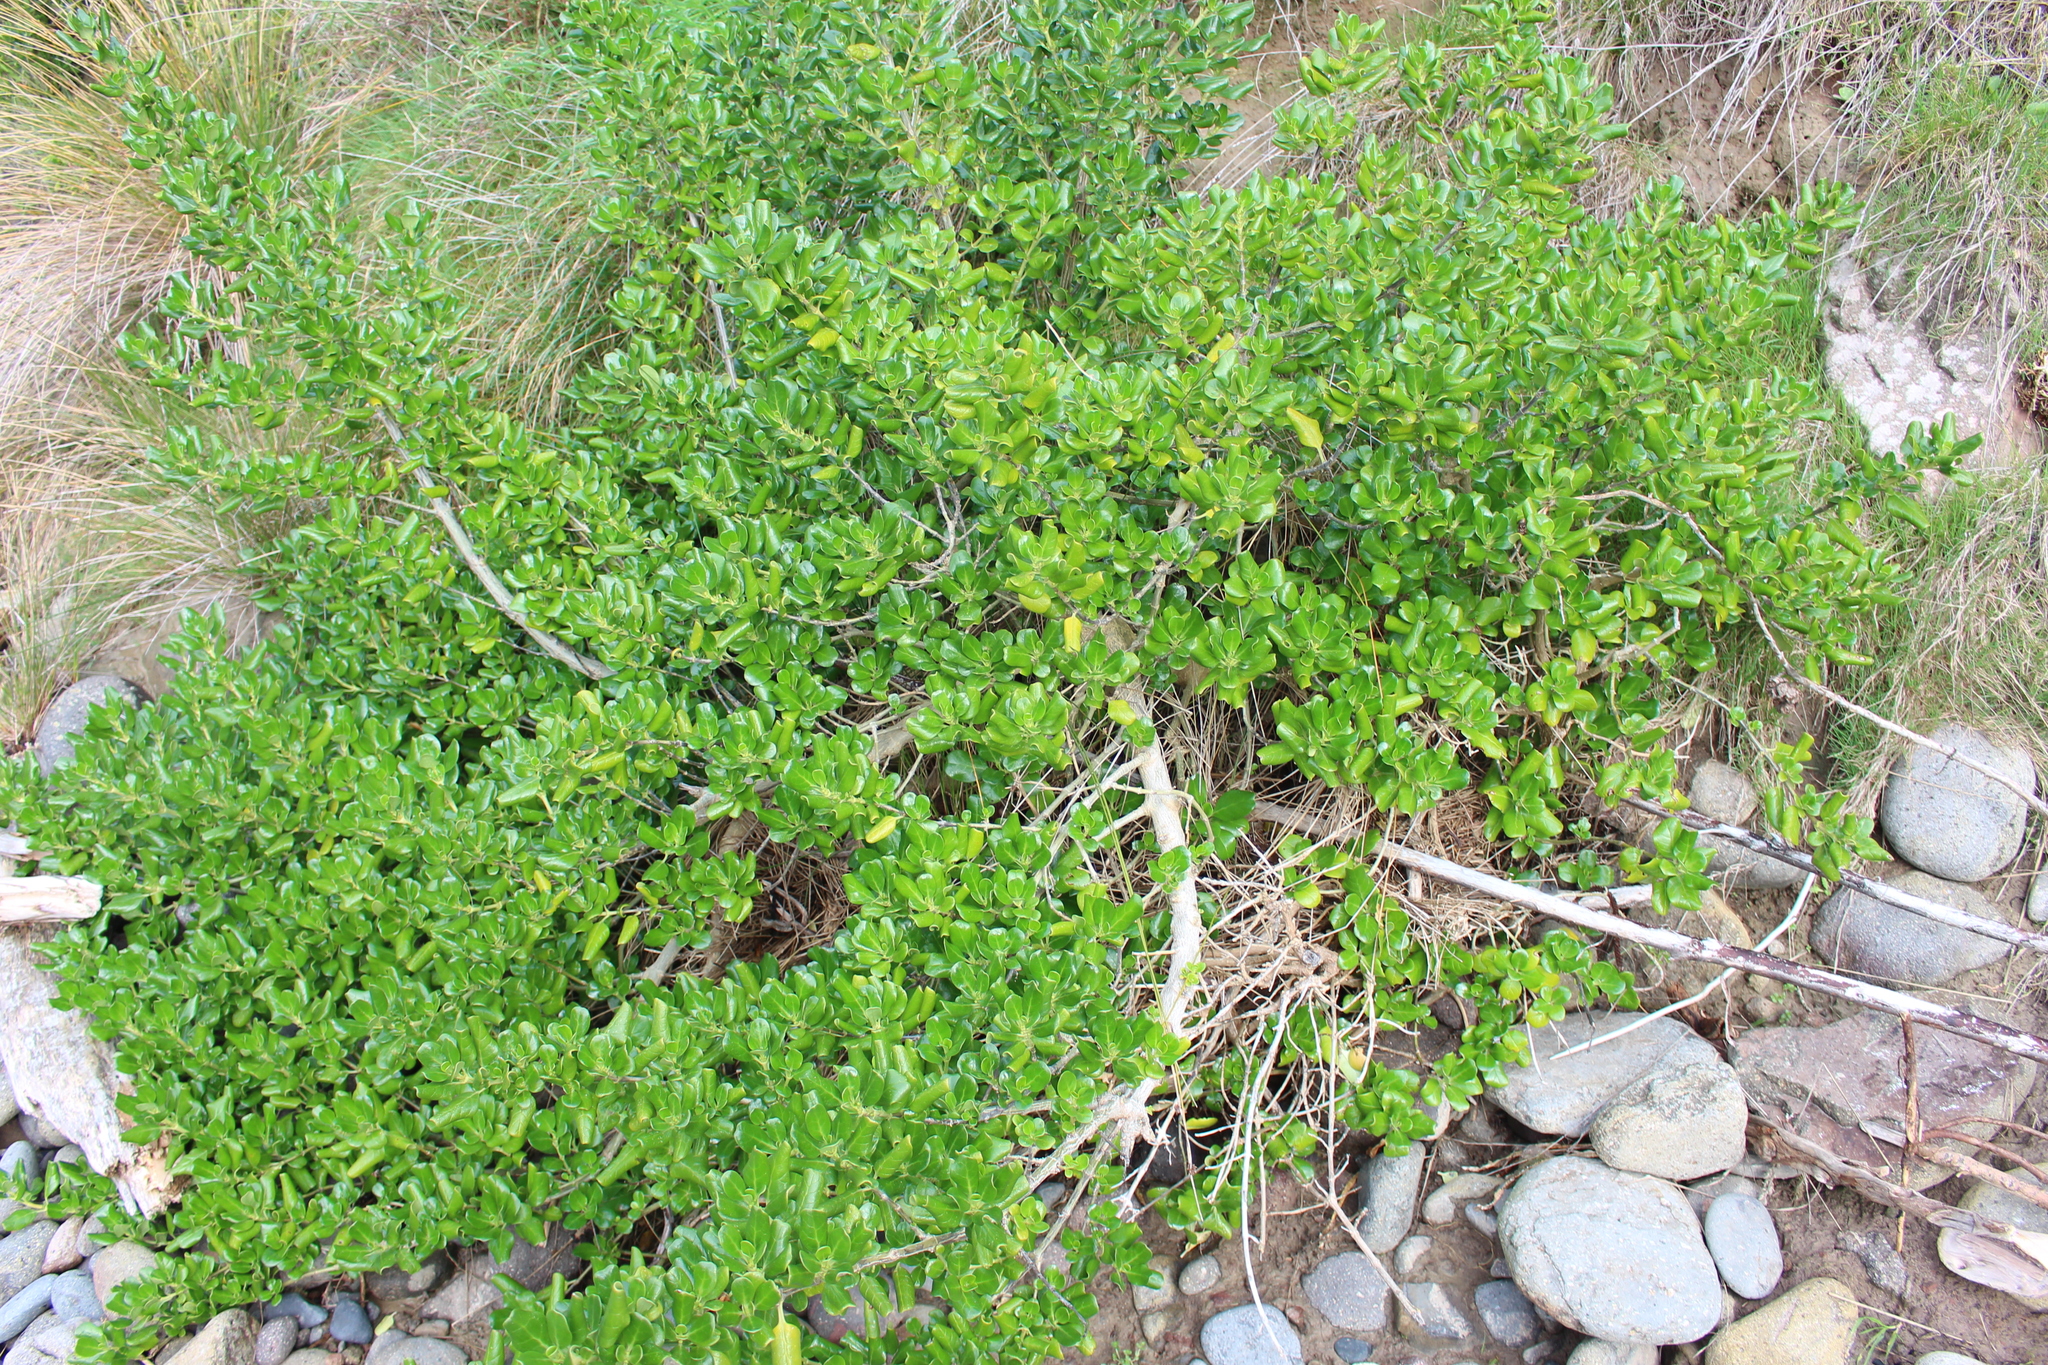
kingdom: Plantae
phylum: Tracheophyta
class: Magnoliopsida
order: Gentianales
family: Rubiaceae
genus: Coprosma
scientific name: Coprosma repens
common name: Tree bedstraw
